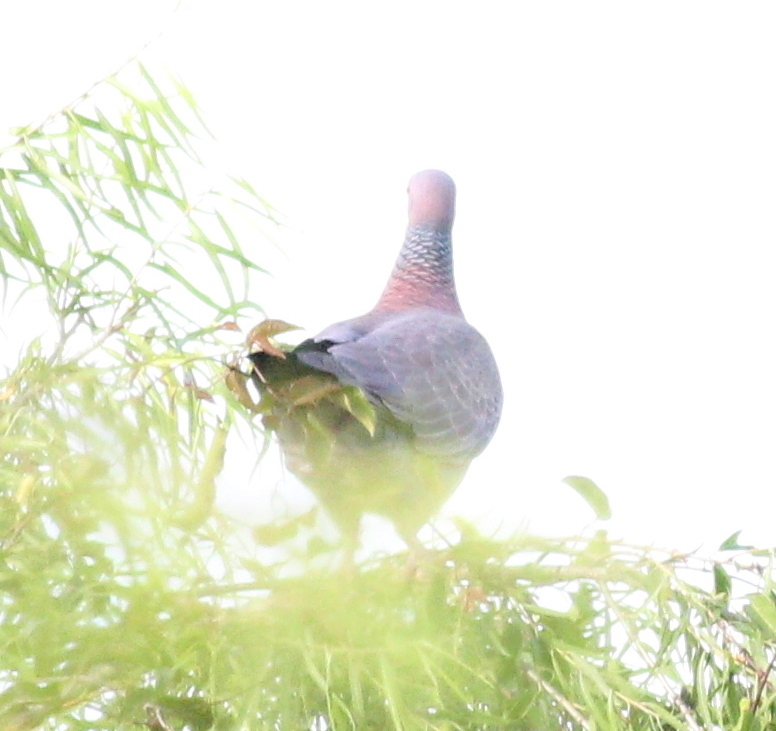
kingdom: Animalia
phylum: Chordata
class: Aves
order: Columbiformes
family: Columbidae
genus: Patagioenas
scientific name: Patagioenas picazuro
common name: Picazuro pigeon
